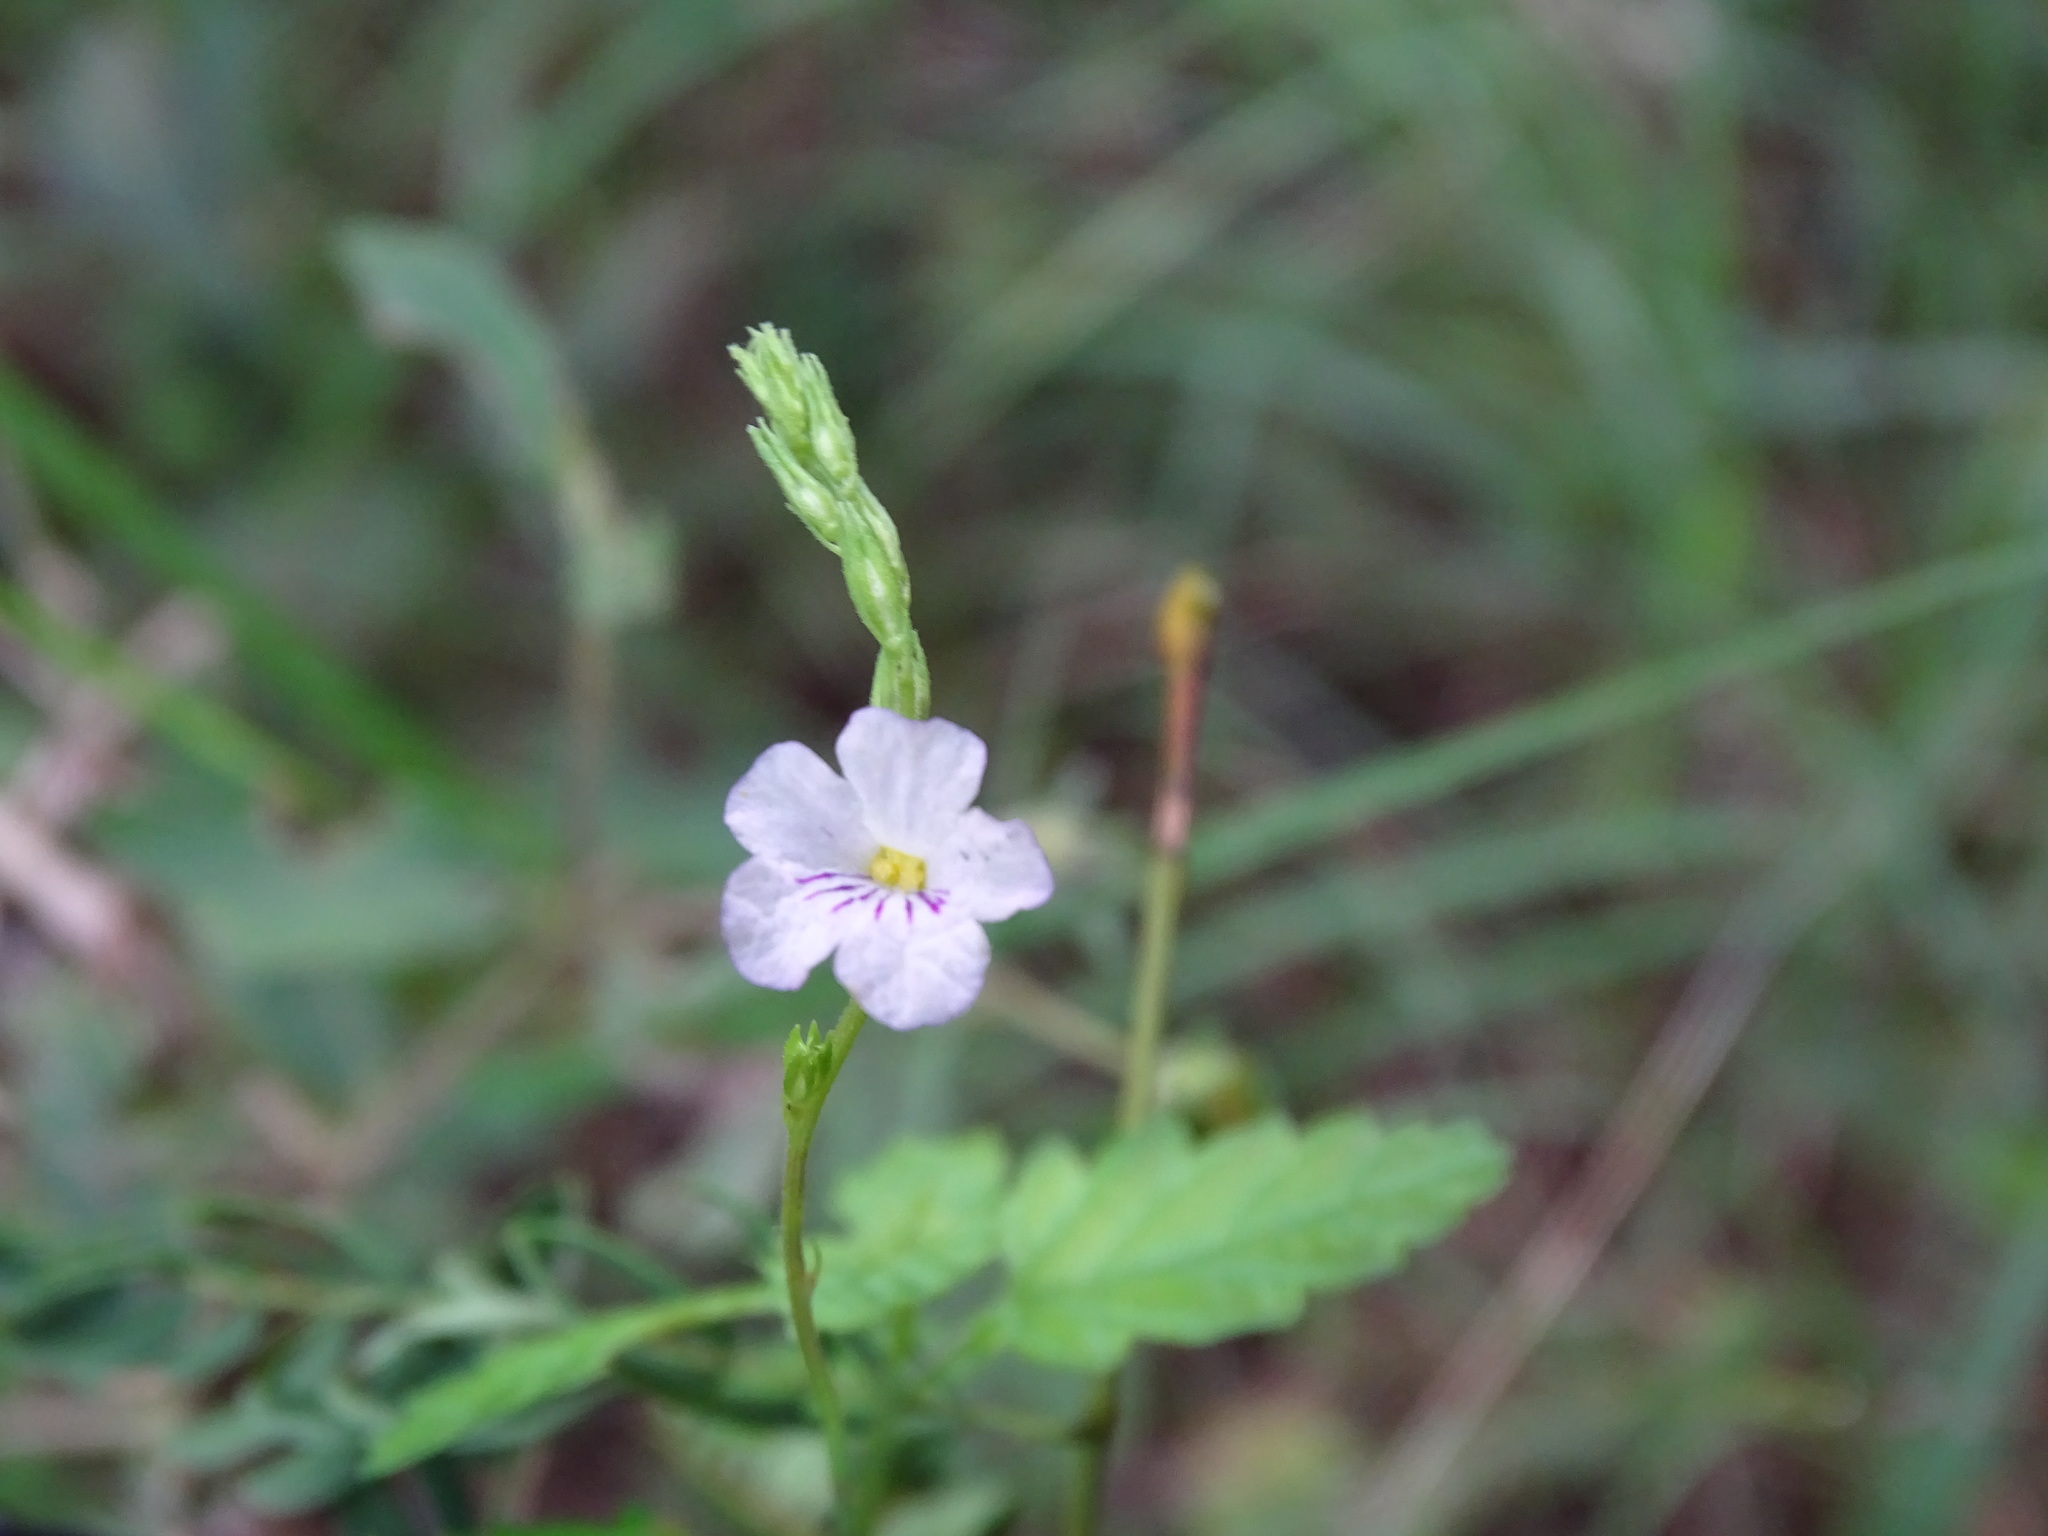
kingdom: Plantae
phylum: Tracheophyta
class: Magnoliopsida
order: Lamiales
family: Verbenaceae
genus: Tamonea
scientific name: Tamonea curassavica
